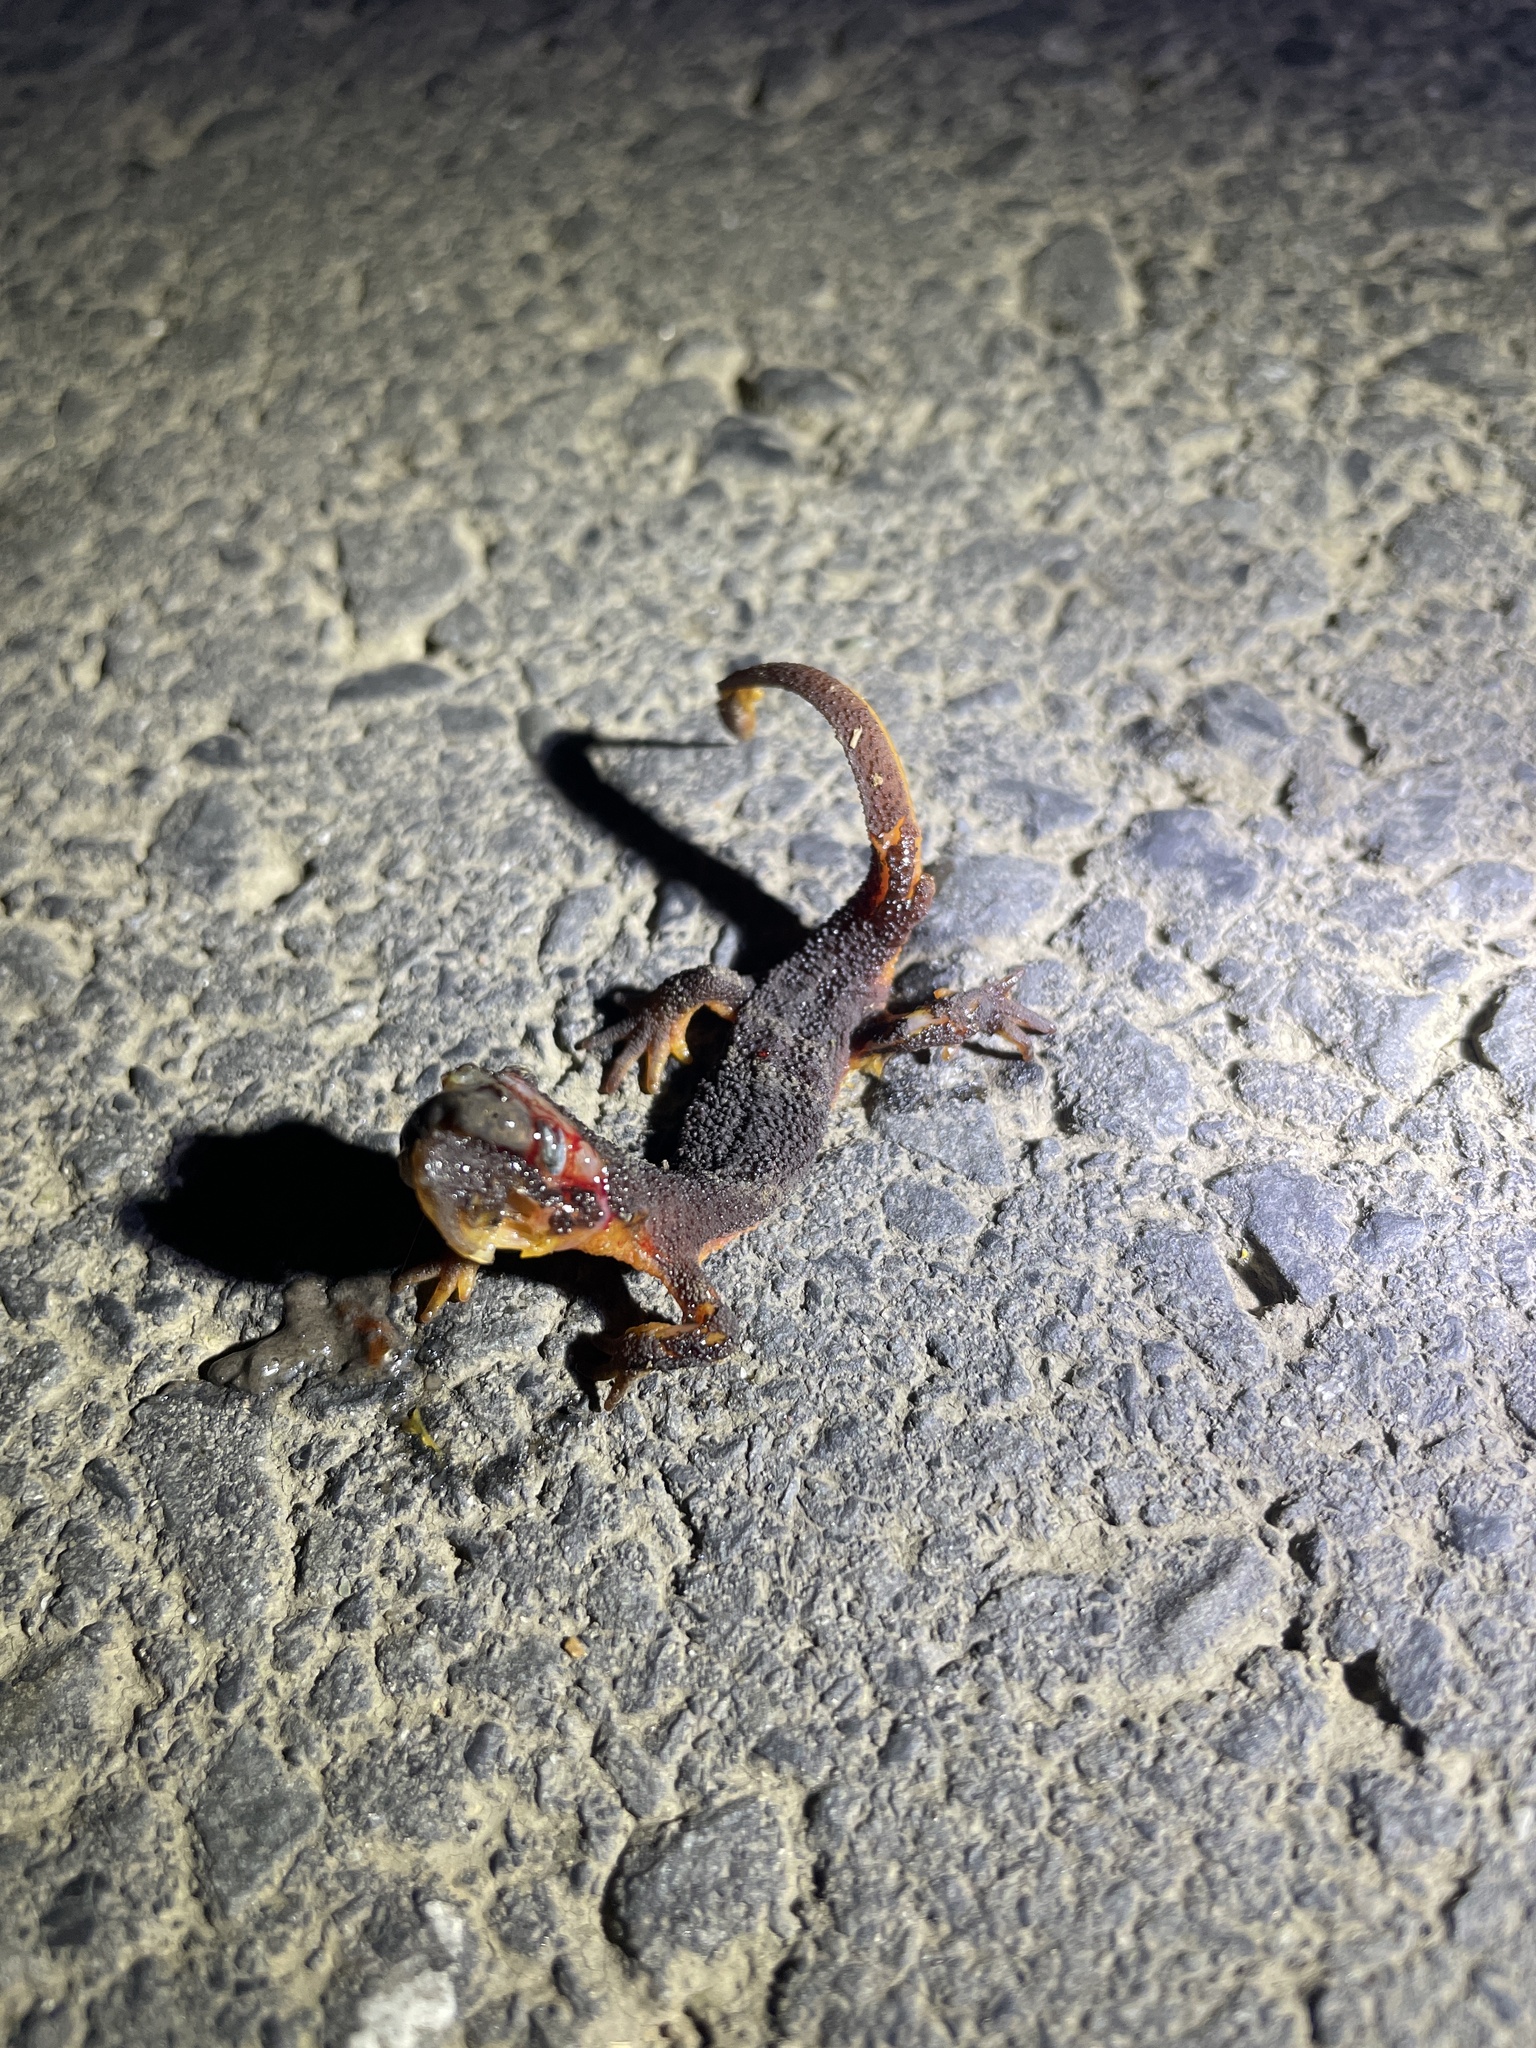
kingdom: Animalia
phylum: Chordata
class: Amphibia
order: Caudata
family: Salamandridae
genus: Taricha
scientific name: Taricha
